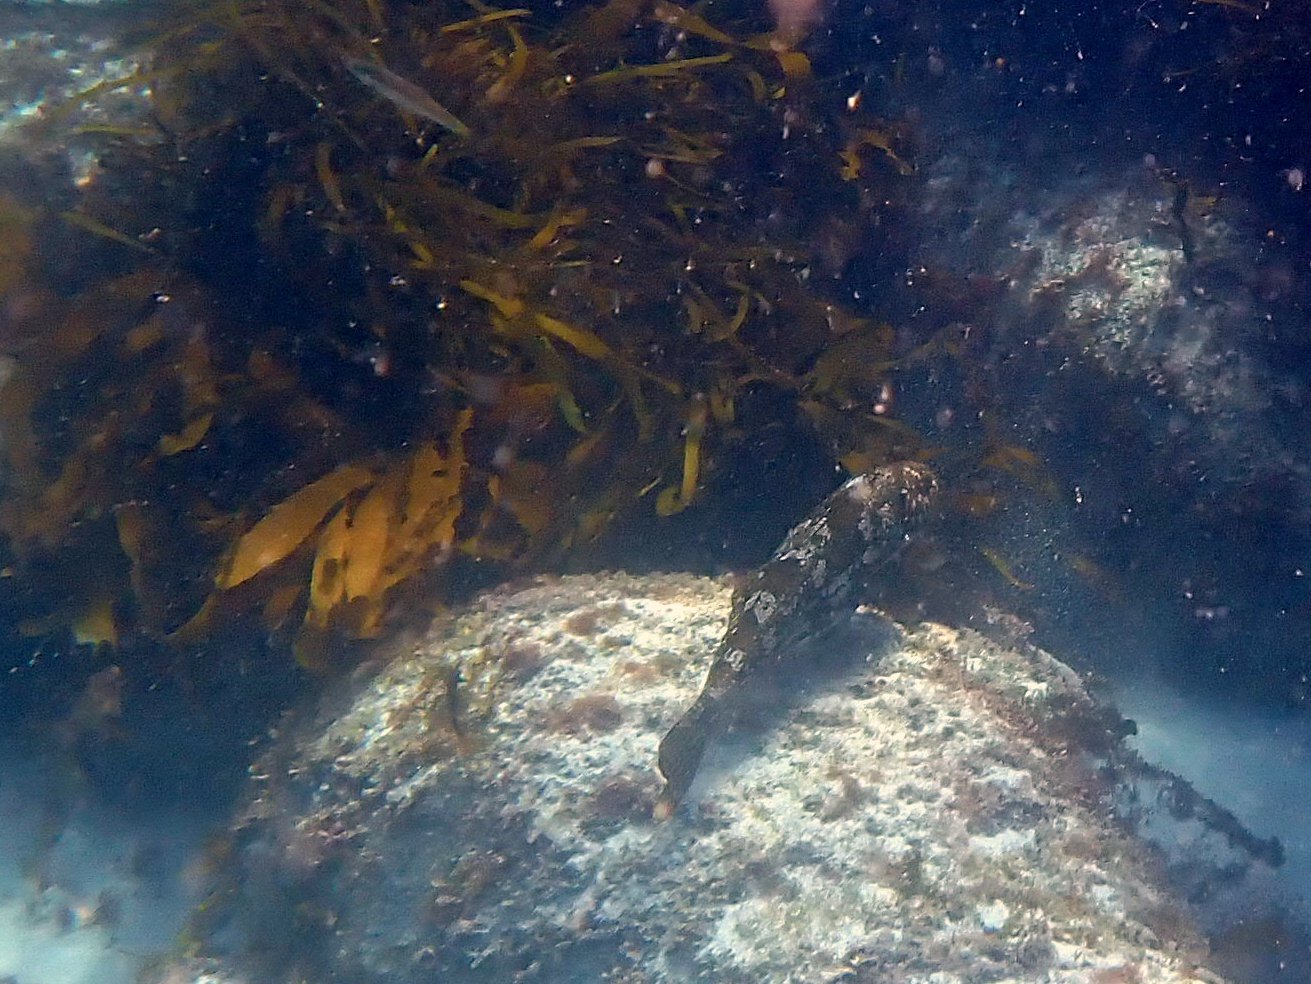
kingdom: Animalia
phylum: Chordata
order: Perciformes
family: Aplodactylidae
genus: Aplodactylus
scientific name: Aplodactylus arctidens
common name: Marblefish
